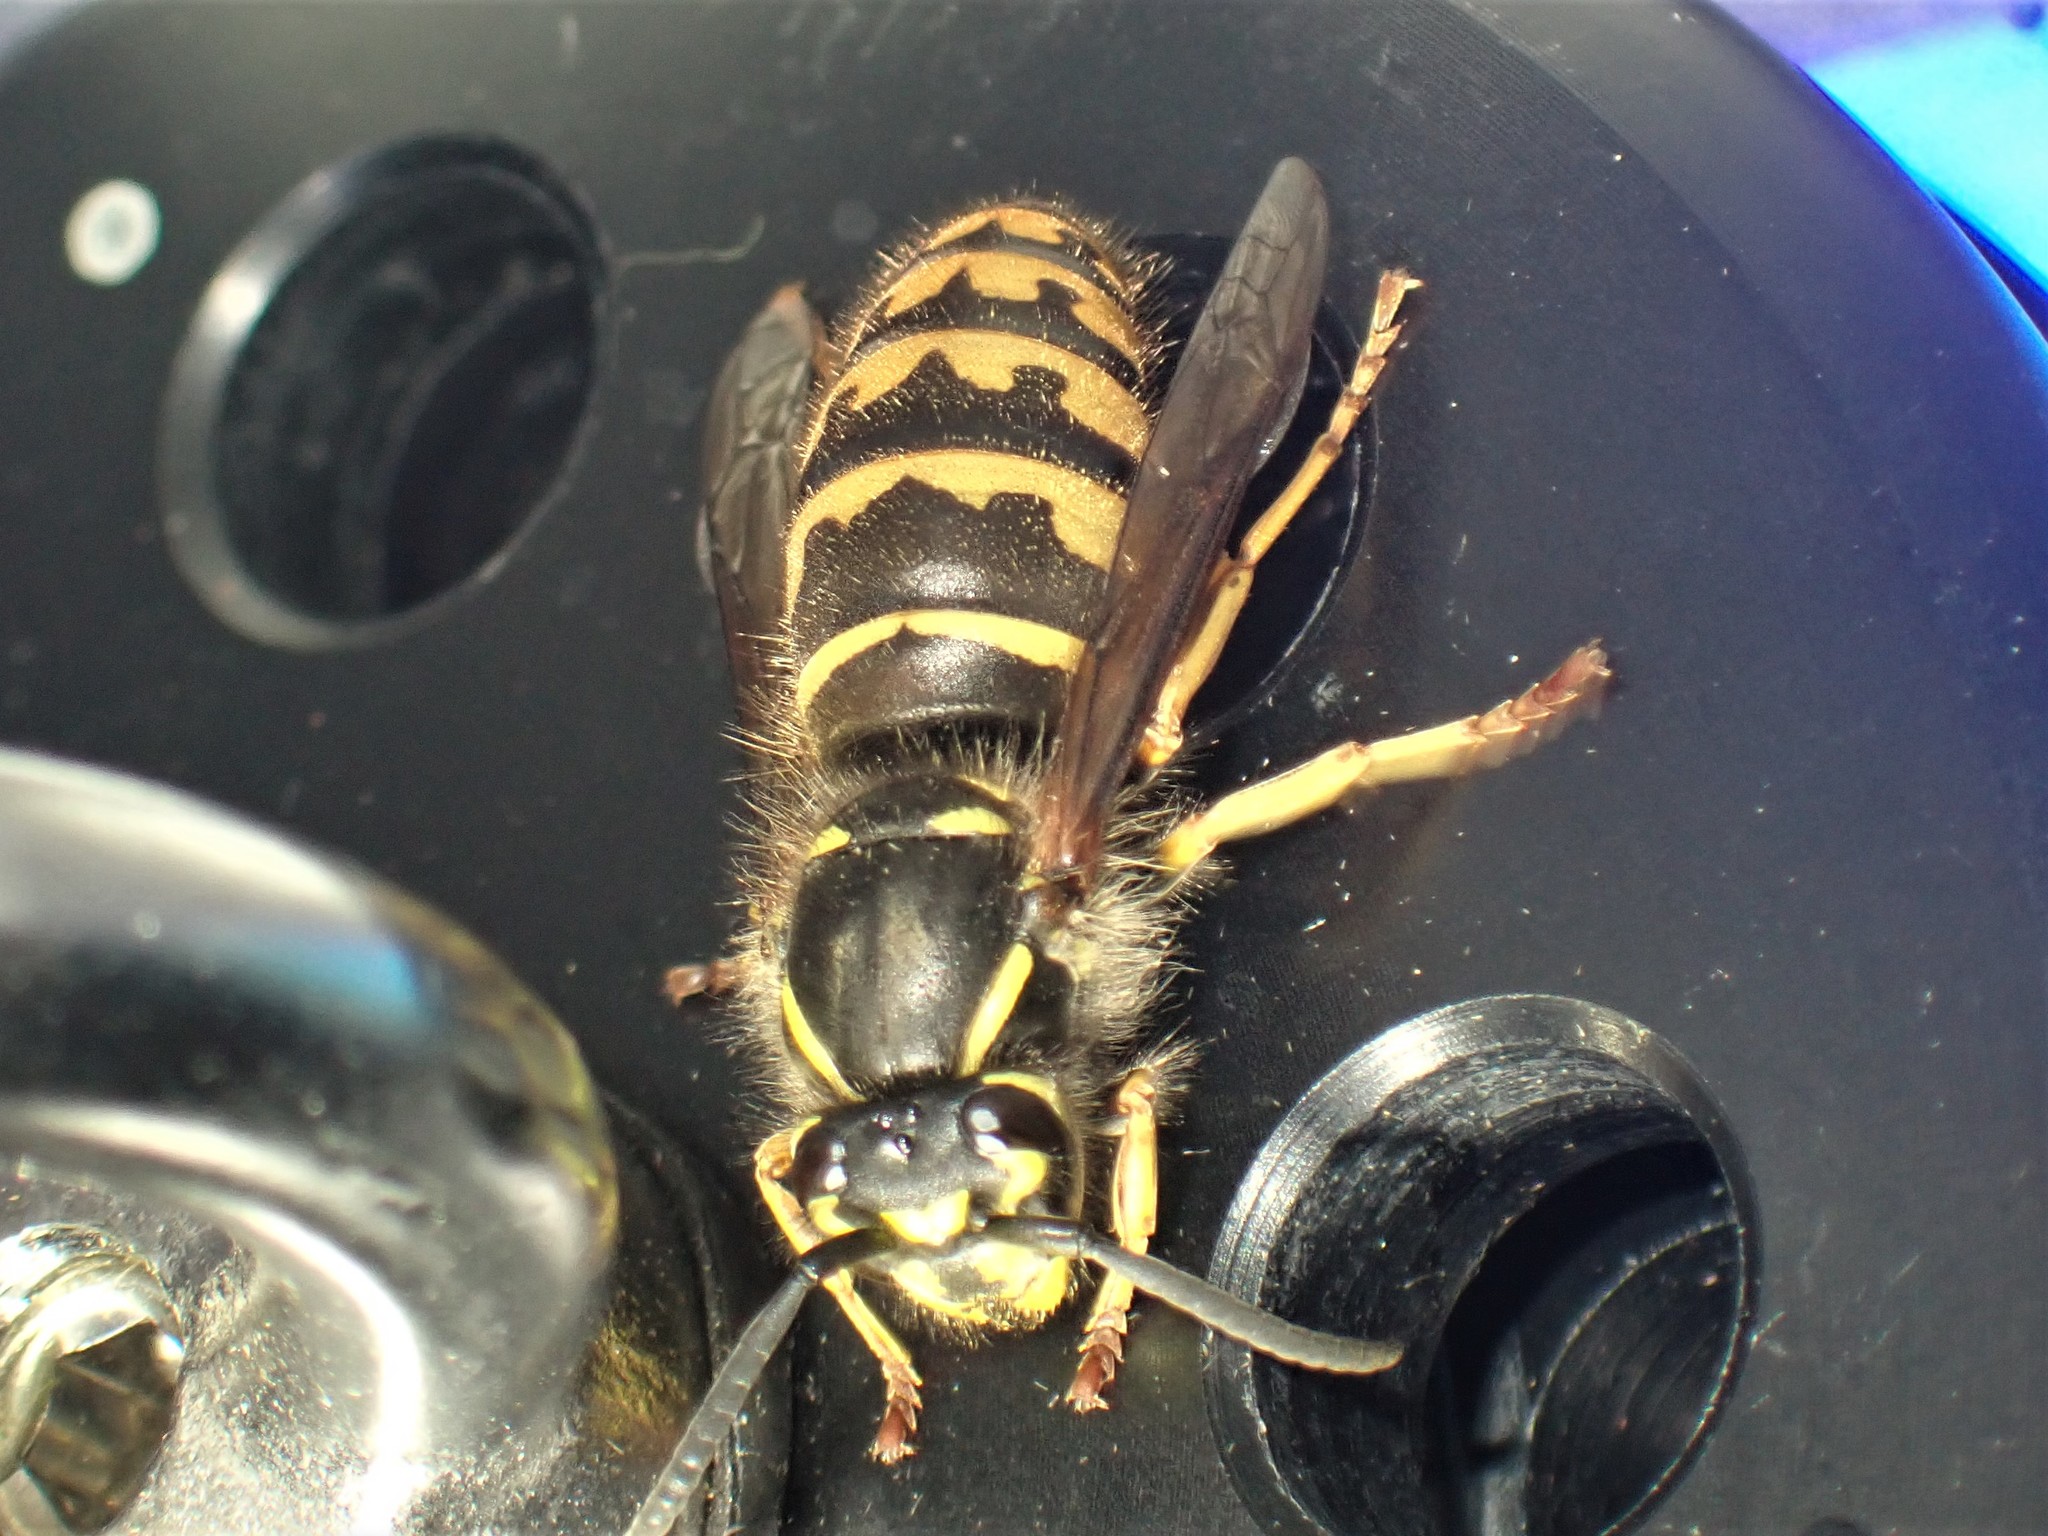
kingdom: Animalia
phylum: Arthropoda
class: Insecta
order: Hymenoptera
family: Vespidae
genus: Vespula
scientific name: Vespula alascensis
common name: Alaska yellowjacket
